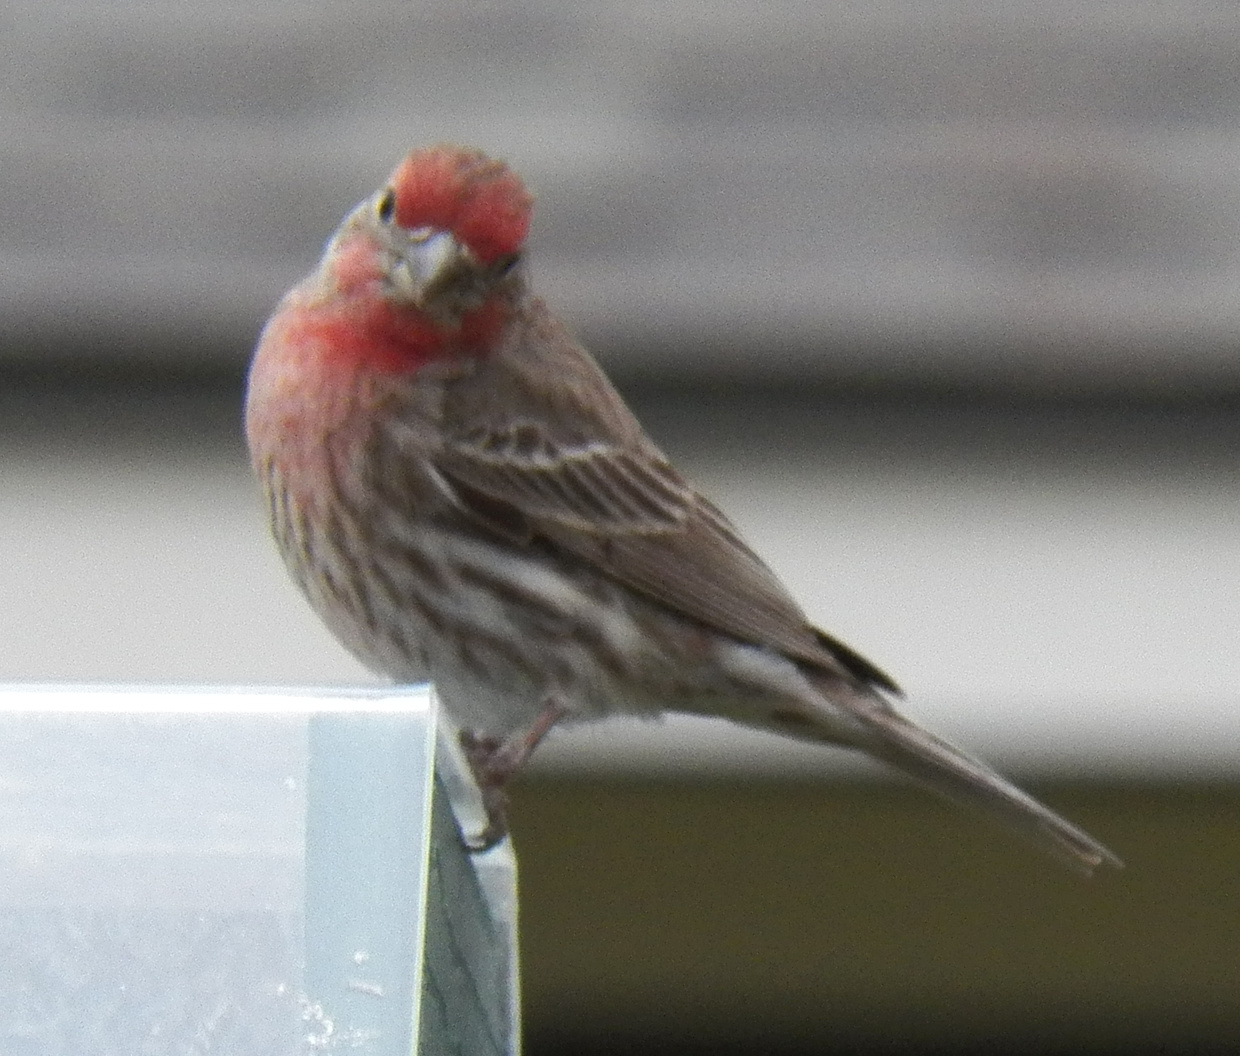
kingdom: Animalia
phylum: Chordata
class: Aves
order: Passeriformes
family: Fringillidae
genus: Haemorhous
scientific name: Haemorhous mexicanus
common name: House finch
